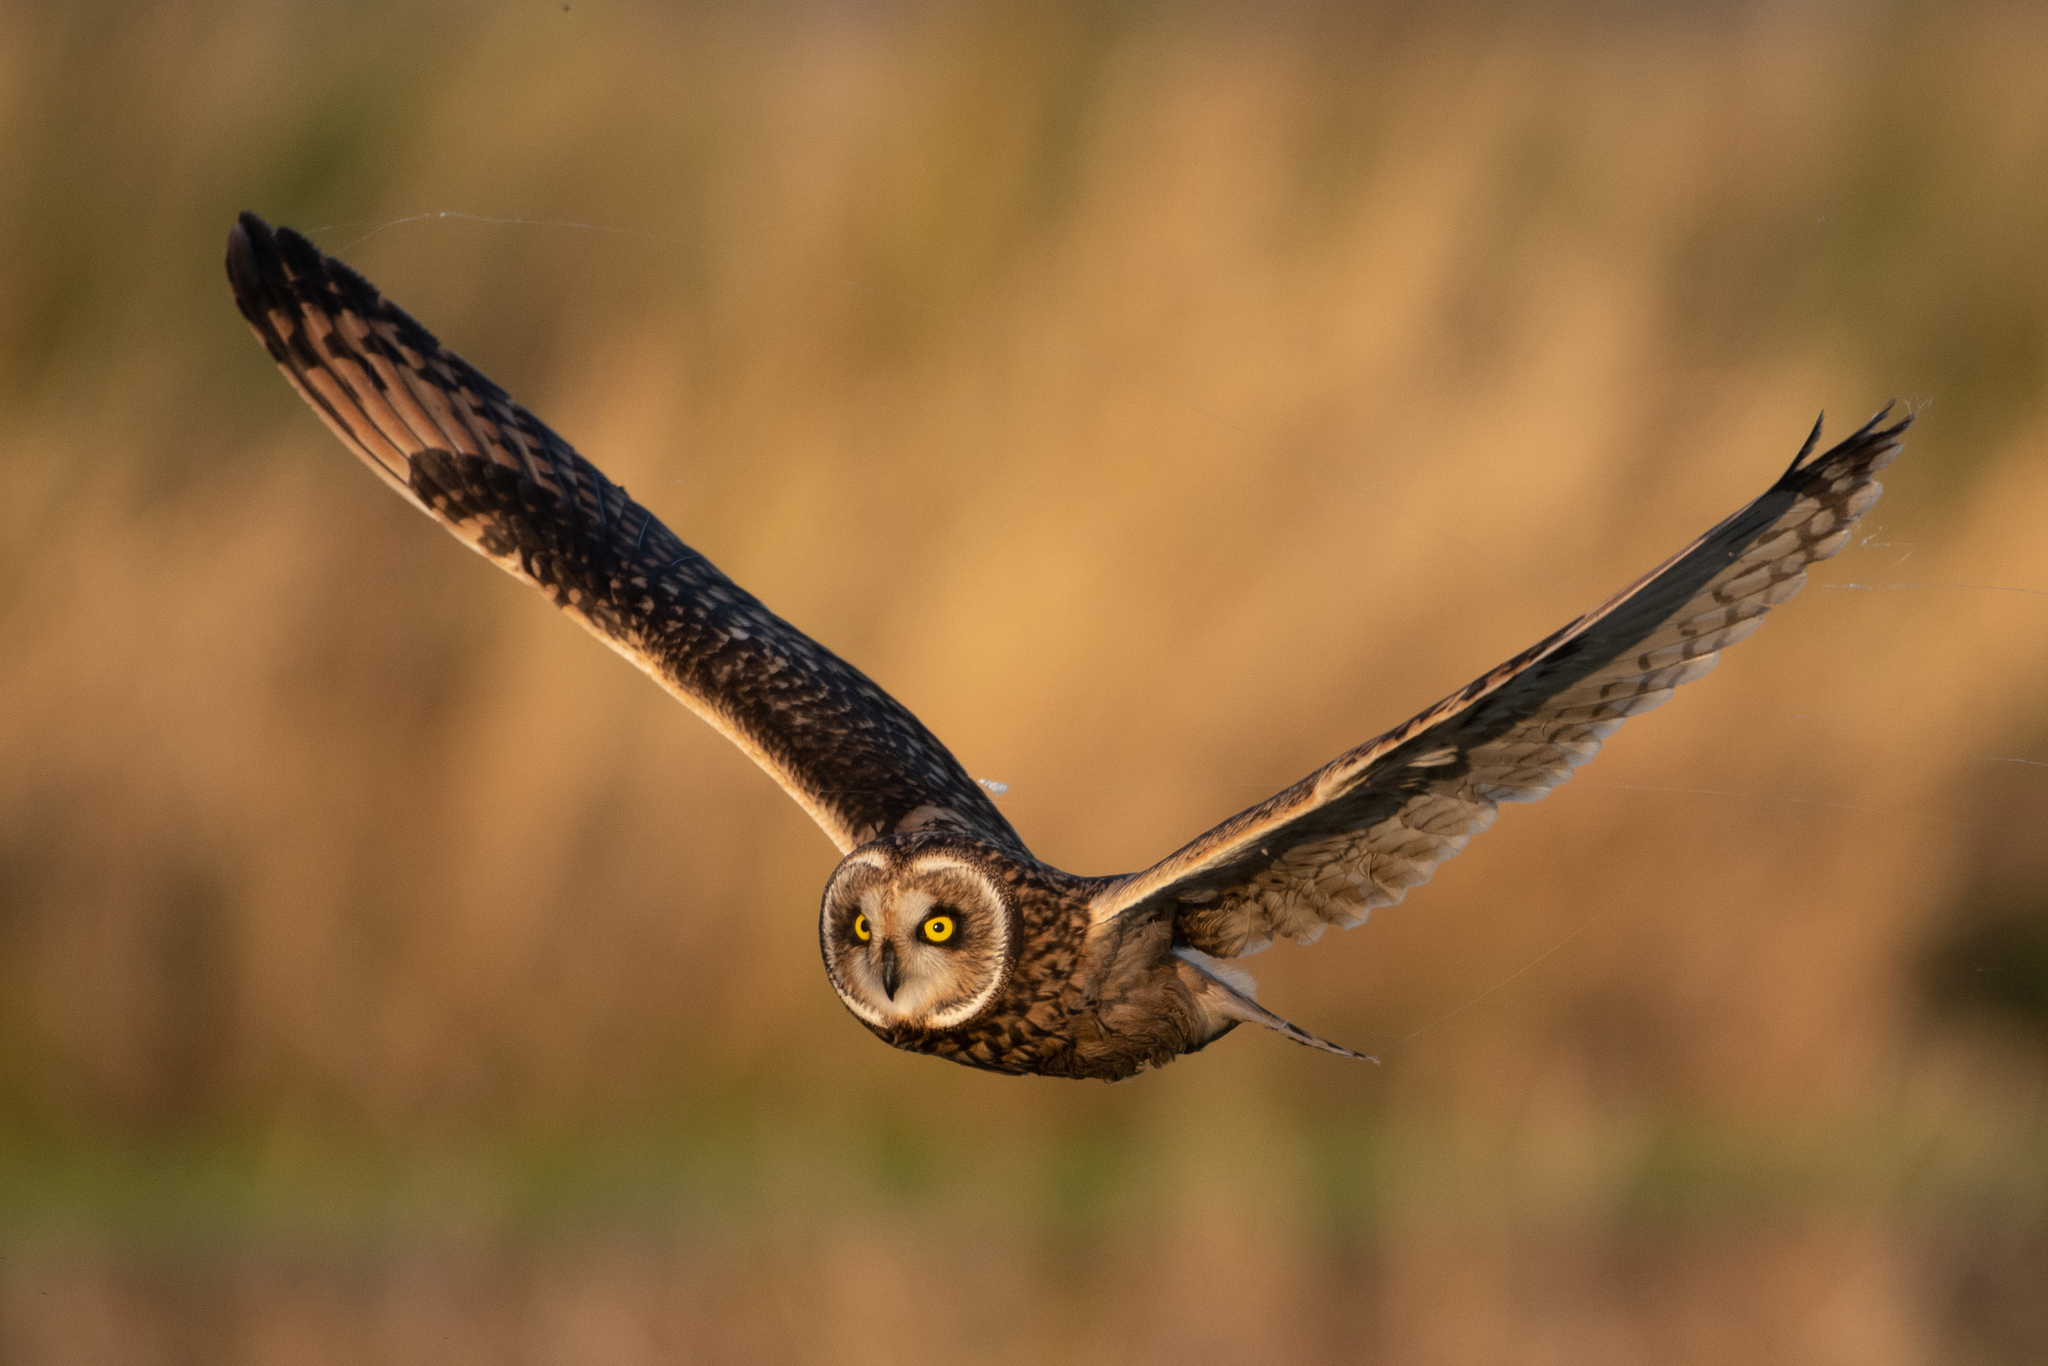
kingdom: Animalia
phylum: Chordata
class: Aves
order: Strigiformes
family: Strigidae
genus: Asio
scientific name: Asio flammeus
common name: Short-eared owl
